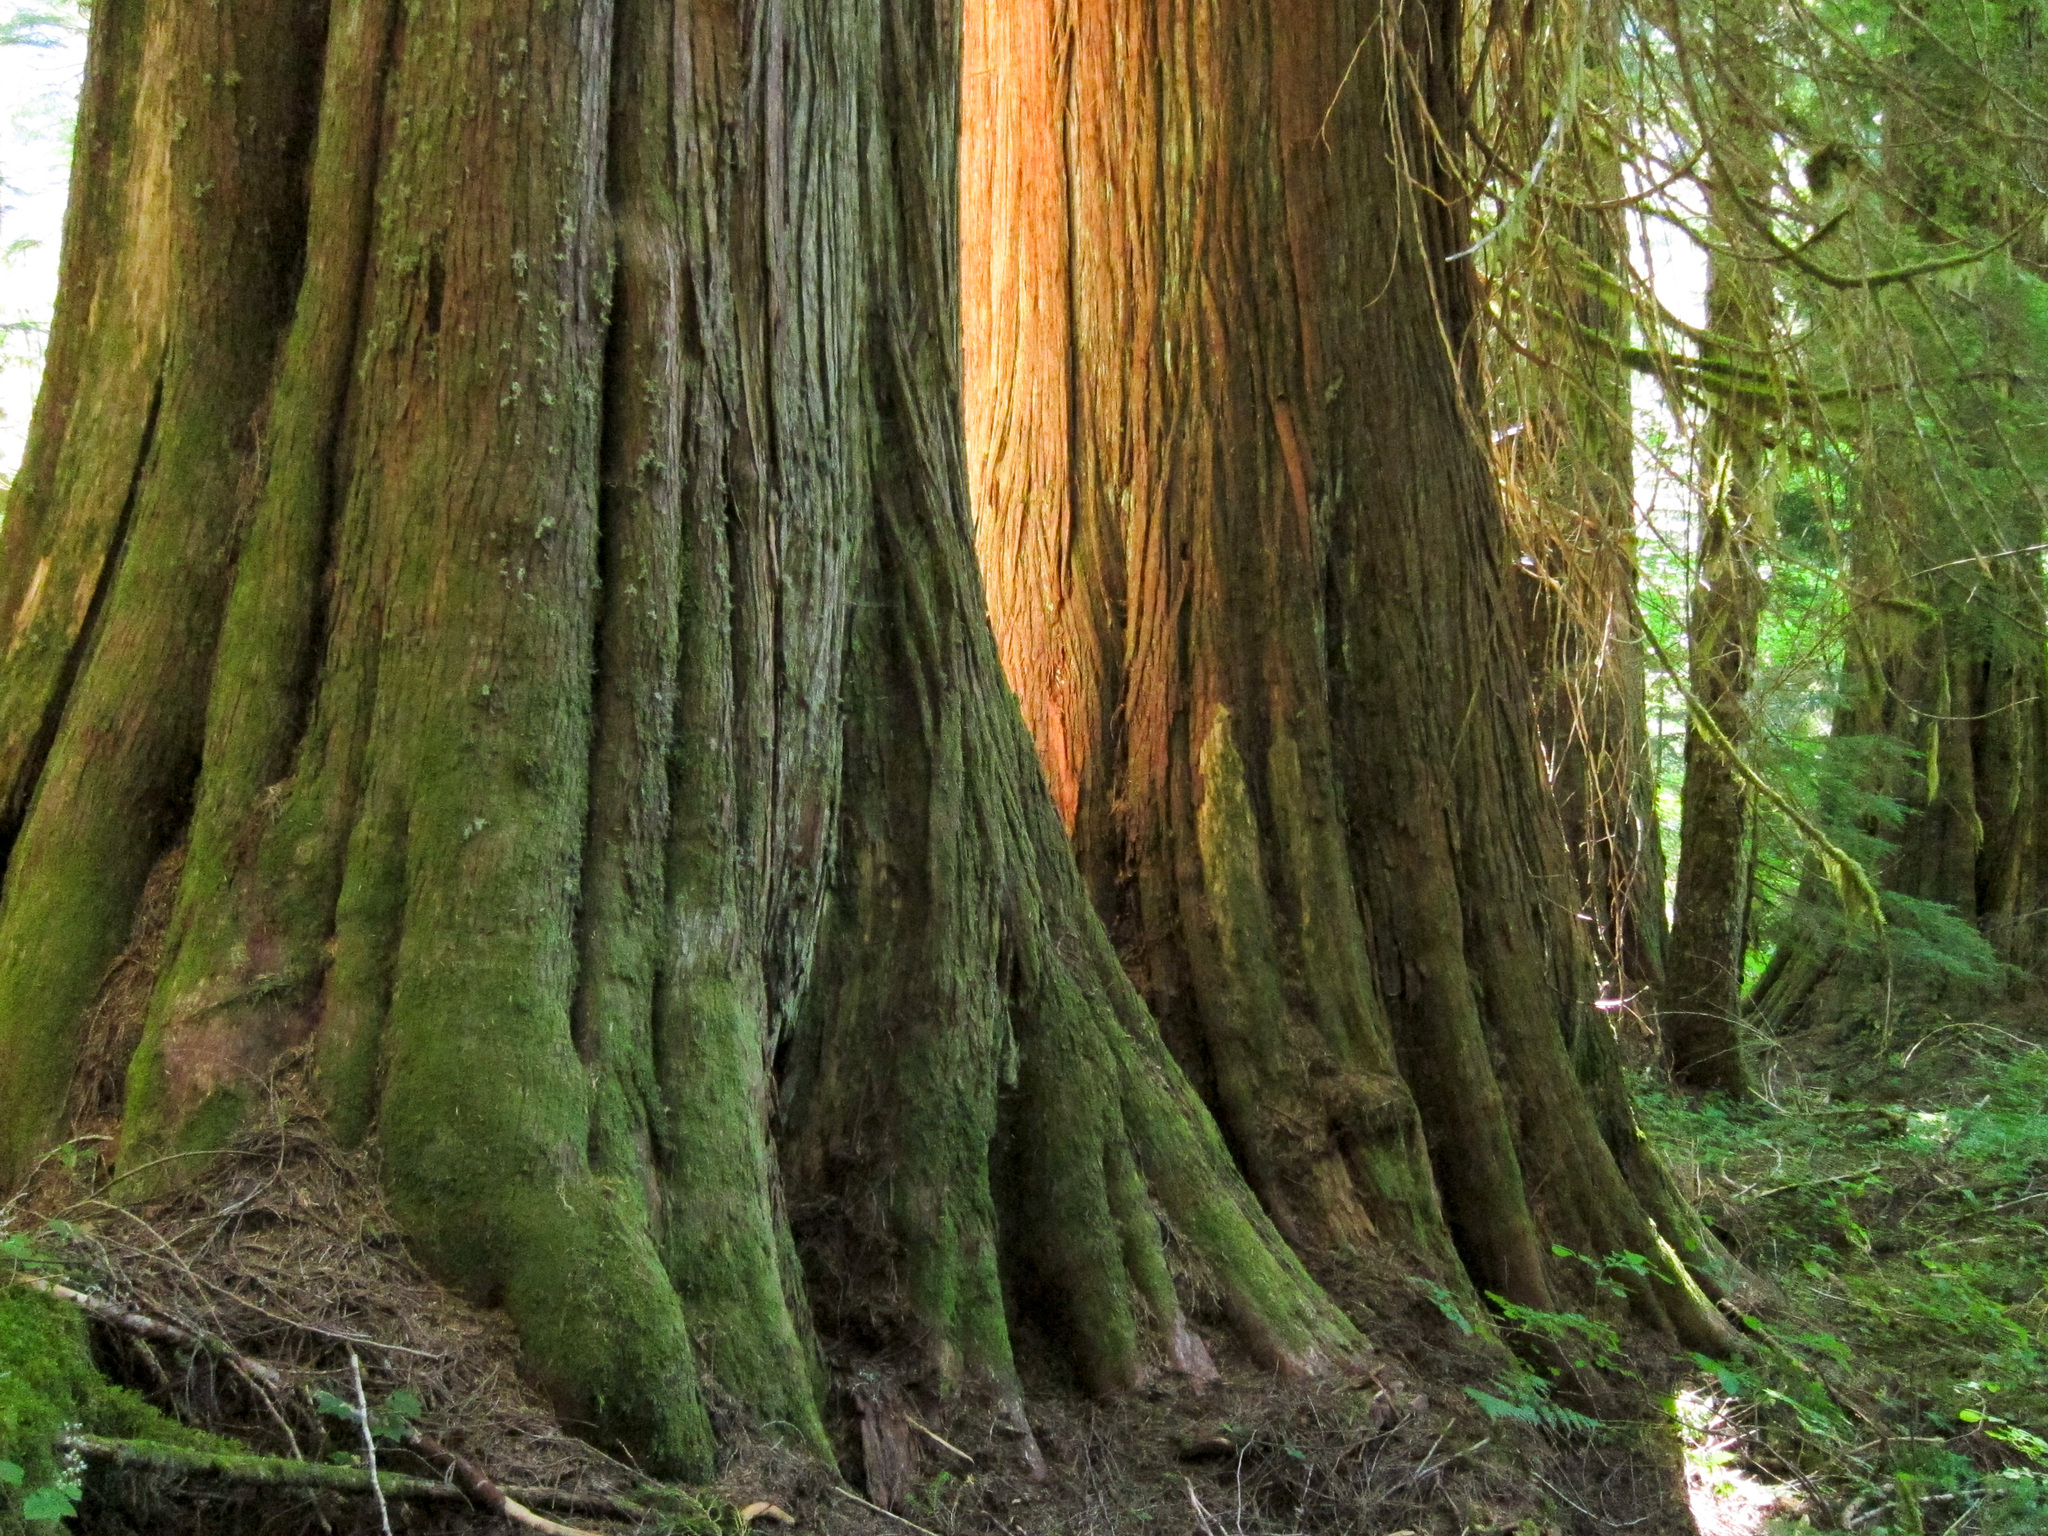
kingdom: Plantae
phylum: Tracheophyta
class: Pinopsida
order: Pinales
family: Cupressaceae
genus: Thuja
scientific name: Thuja plicata
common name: Western red-cedar
